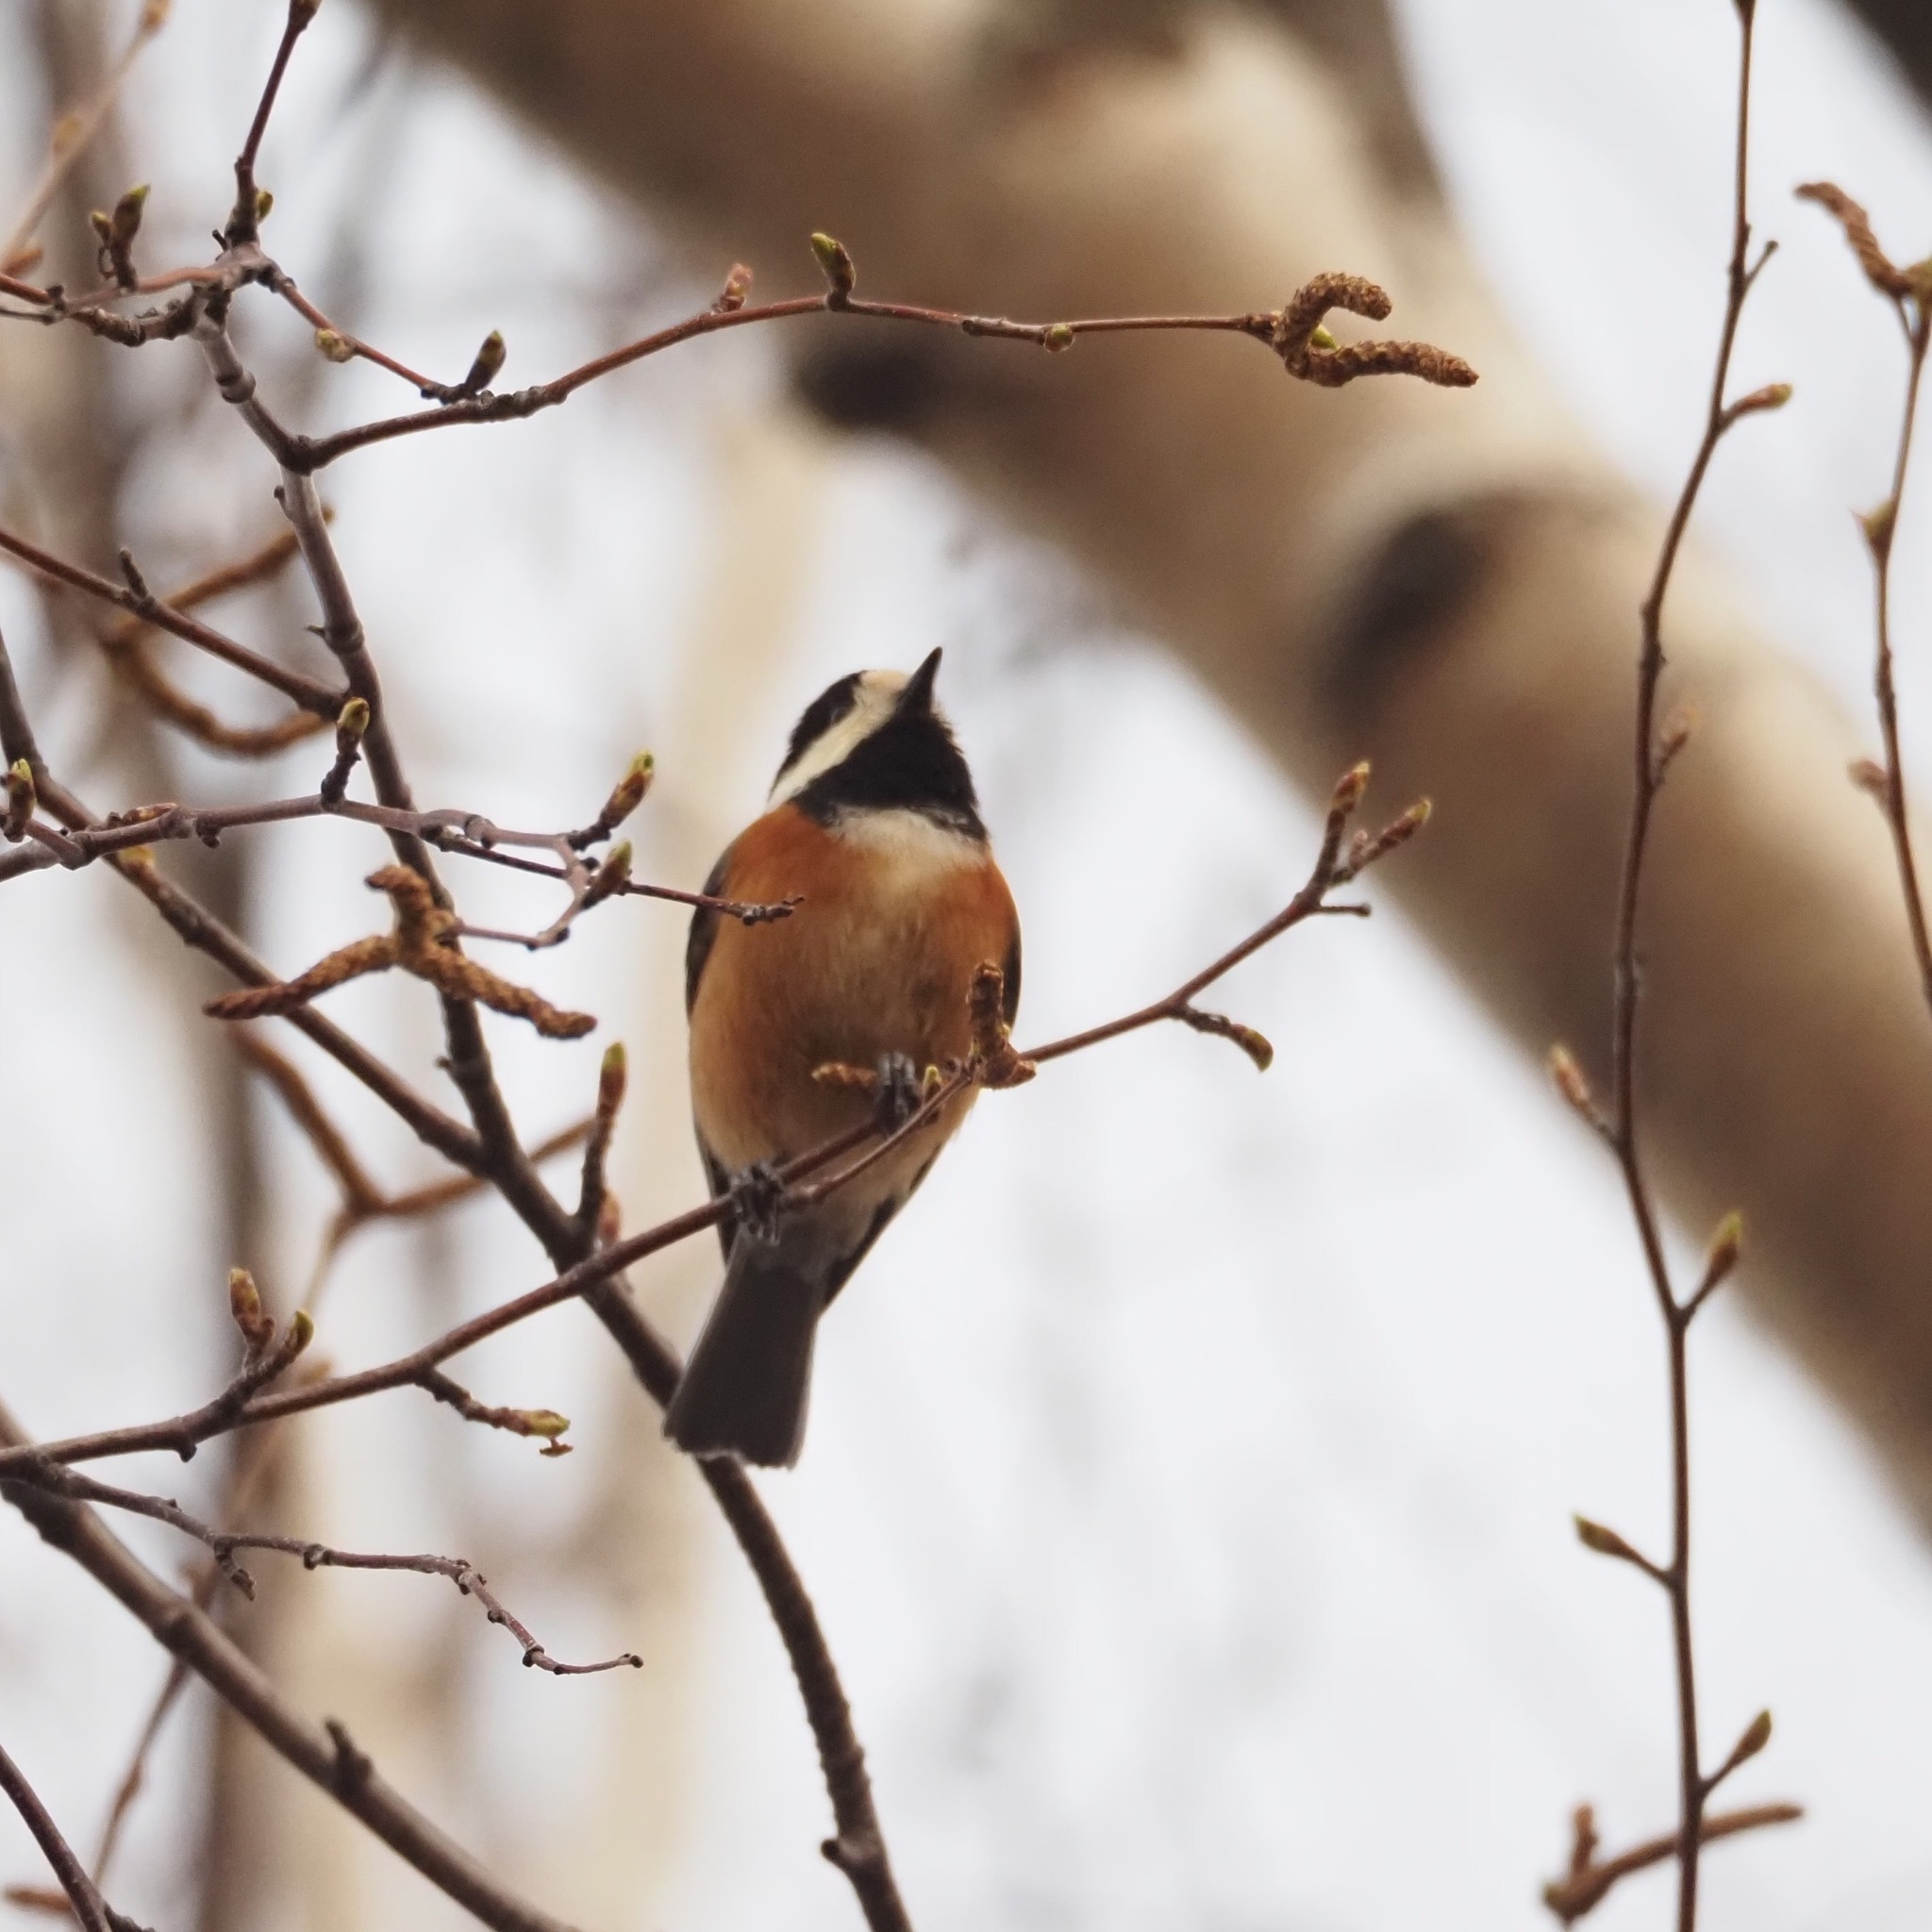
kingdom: Animalia
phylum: Chordata
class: Aves
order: Passeriformes
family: Paridae
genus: Poecile
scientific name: Poecile varius
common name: Varied tit
